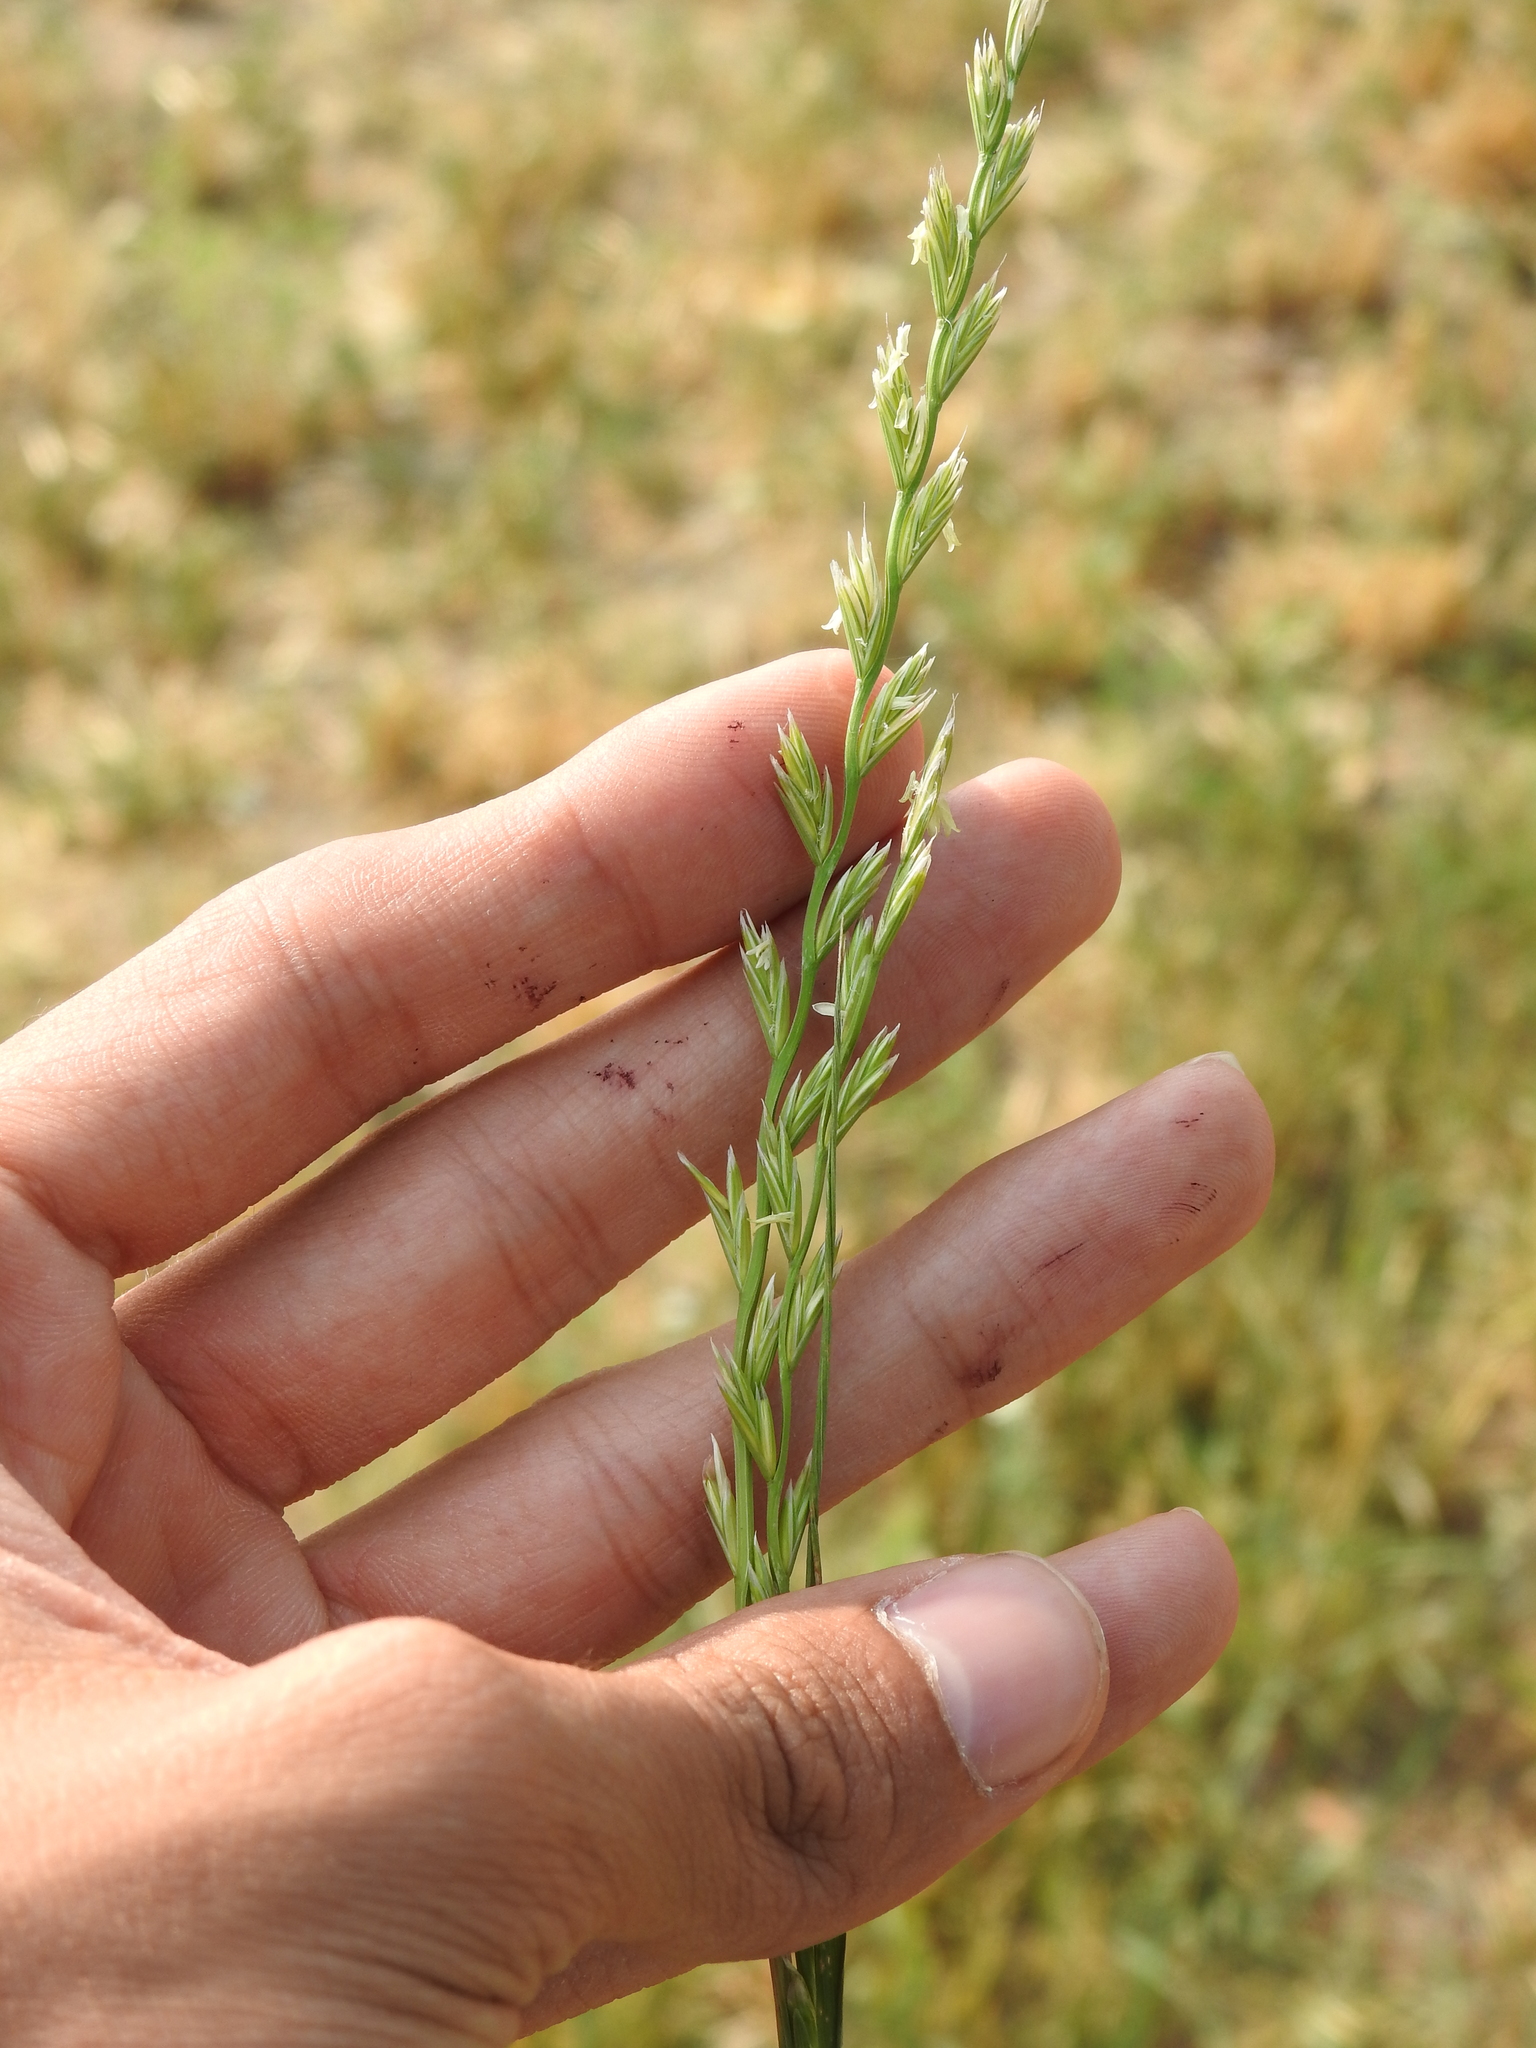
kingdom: Plantae
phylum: Tracheophyta
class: Liliopsida
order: Poales
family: Poaceae
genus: Lolium
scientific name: Lolium perenne
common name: Perennial ryegrass
